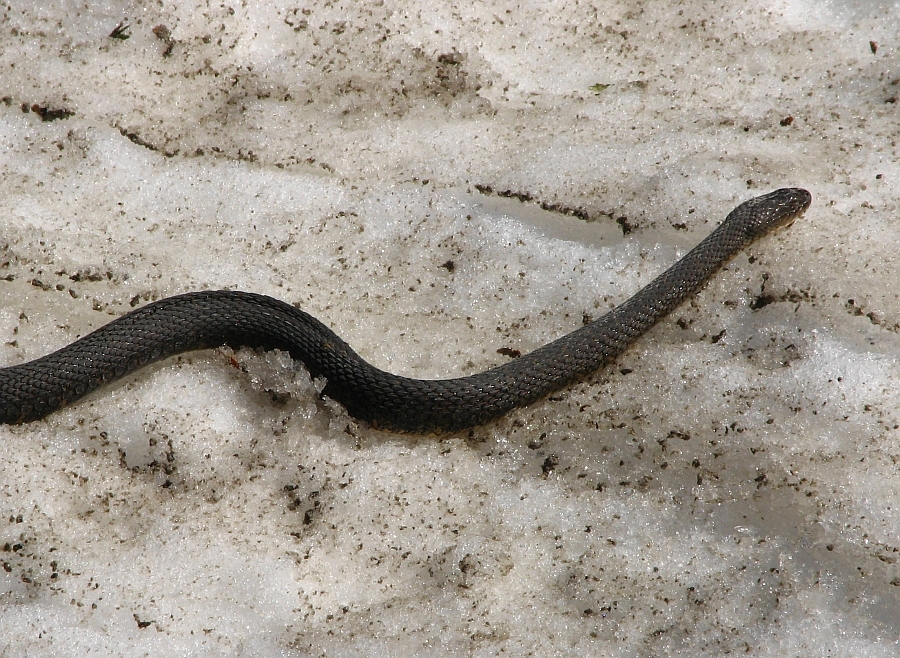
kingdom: Animalia
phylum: Chordata
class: Squamata
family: Colubridae
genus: Nerodia
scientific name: Nerodia sipedon
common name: Northern water snake
